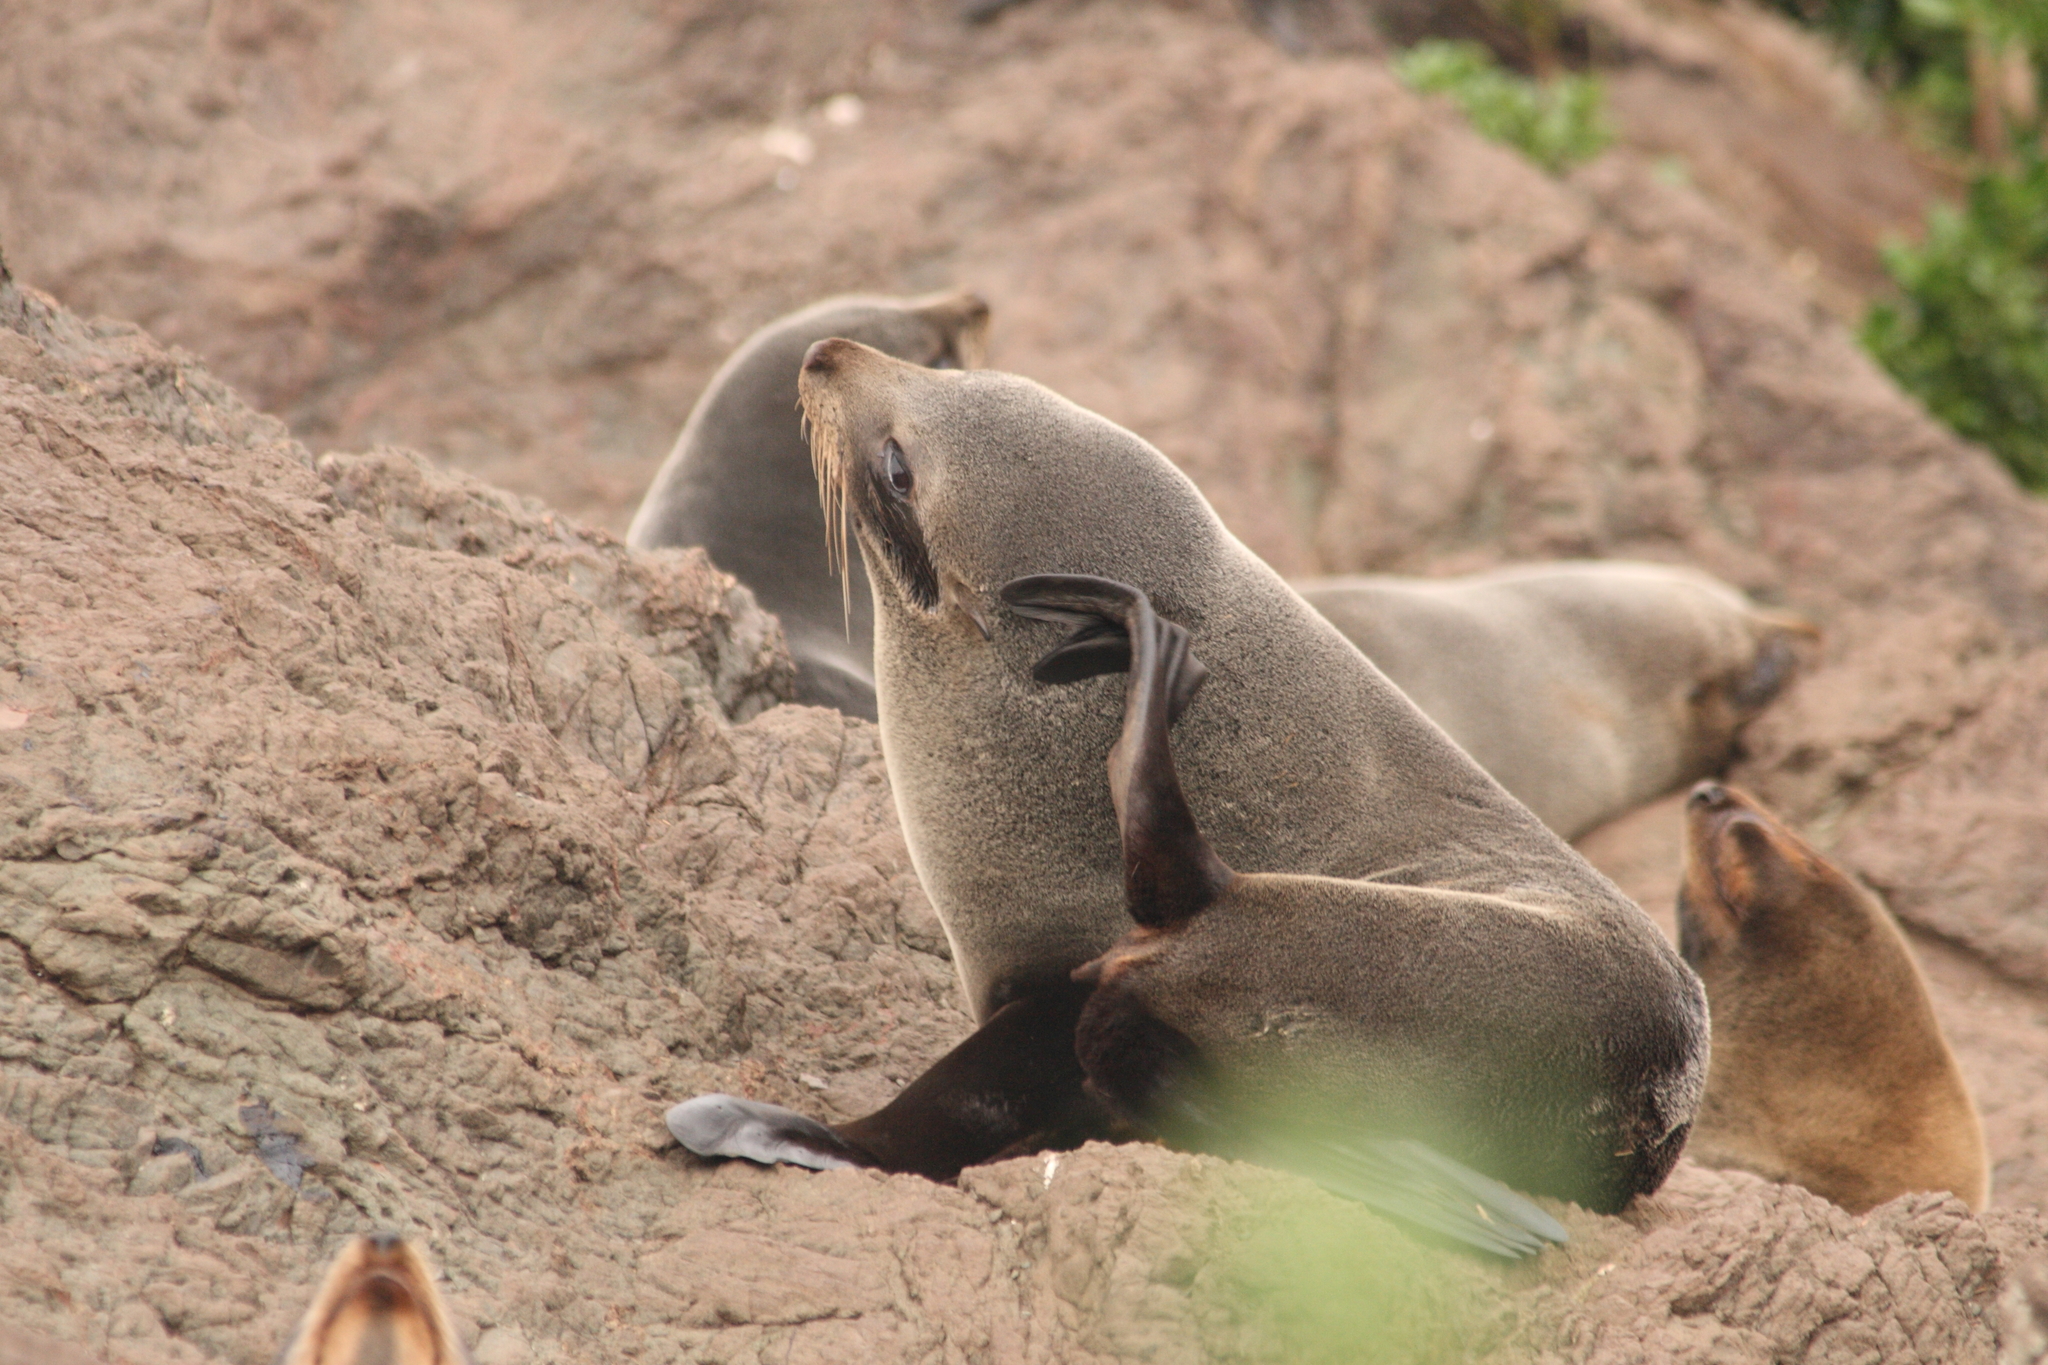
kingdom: Animalia
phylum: Chordata
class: Mammalia
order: Carnivora
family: Otariidae
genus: Arctocephalus
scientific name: Arctocephalus forsteri
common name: New zealand fur seal
